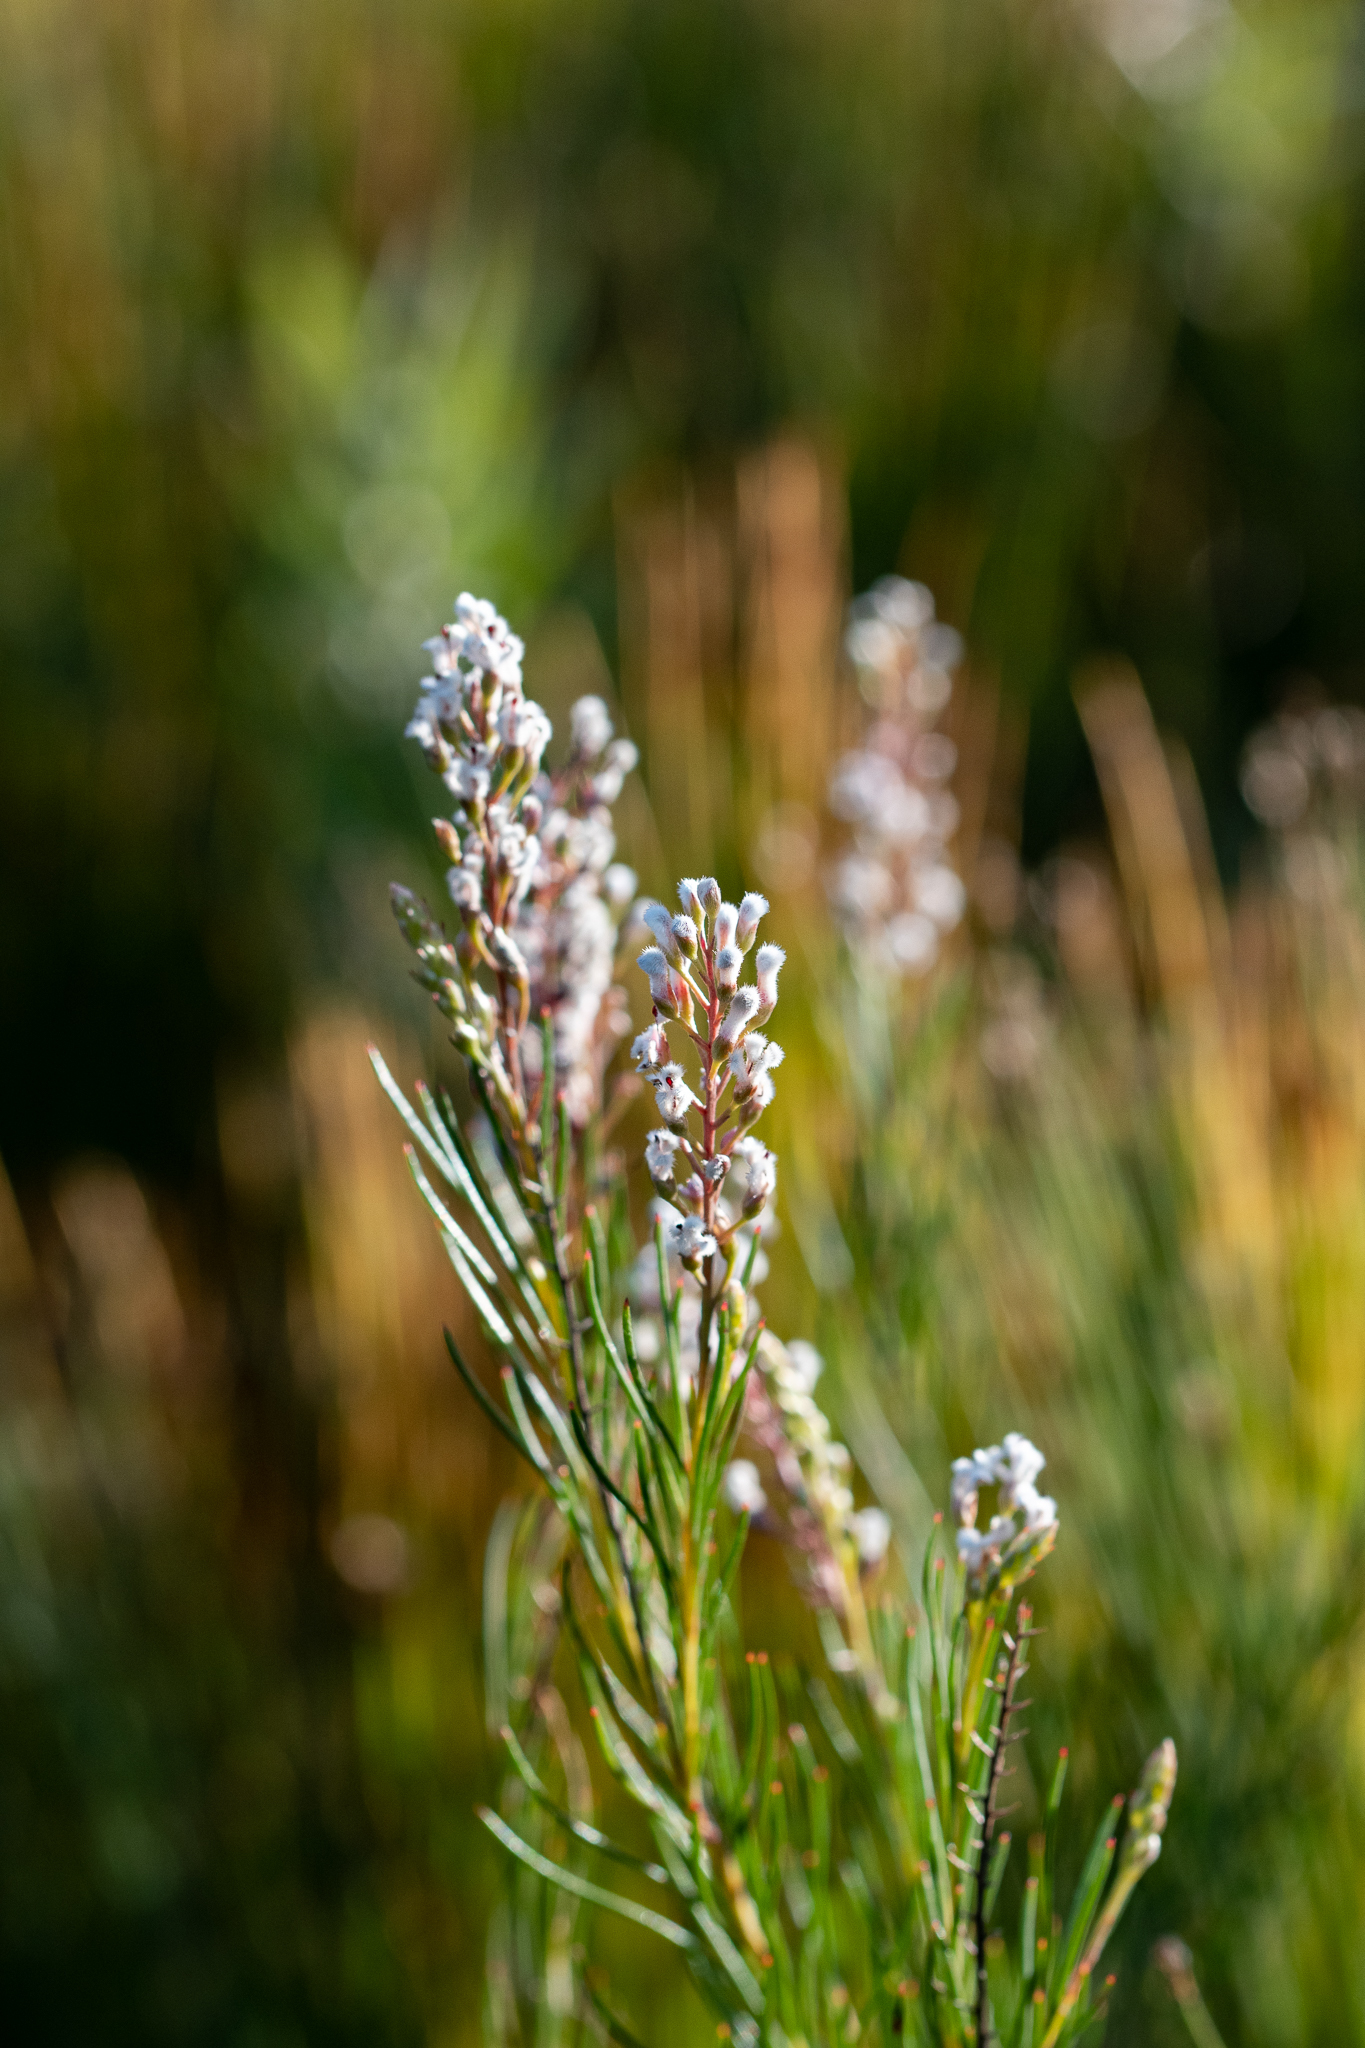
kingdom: Plantae
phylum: Tracheophyta
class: Magnoliopsida
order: Proteales
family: Proteaceae
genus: Spatalla
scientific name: Spatalla racemosa
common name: Lax-stalked spoon
